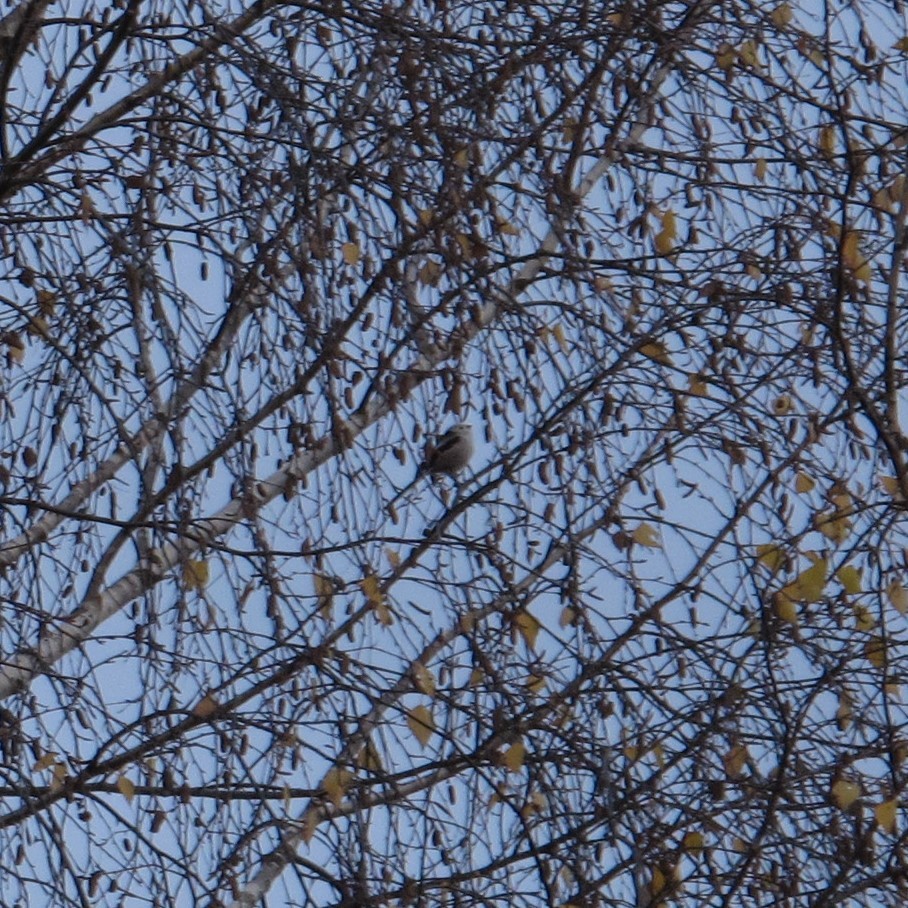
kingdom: Animalia
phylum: Chordata
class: Aves
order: Passeriformes
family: Aegithalidae
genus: Aegithalos
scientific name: Aegithalos caudatus
